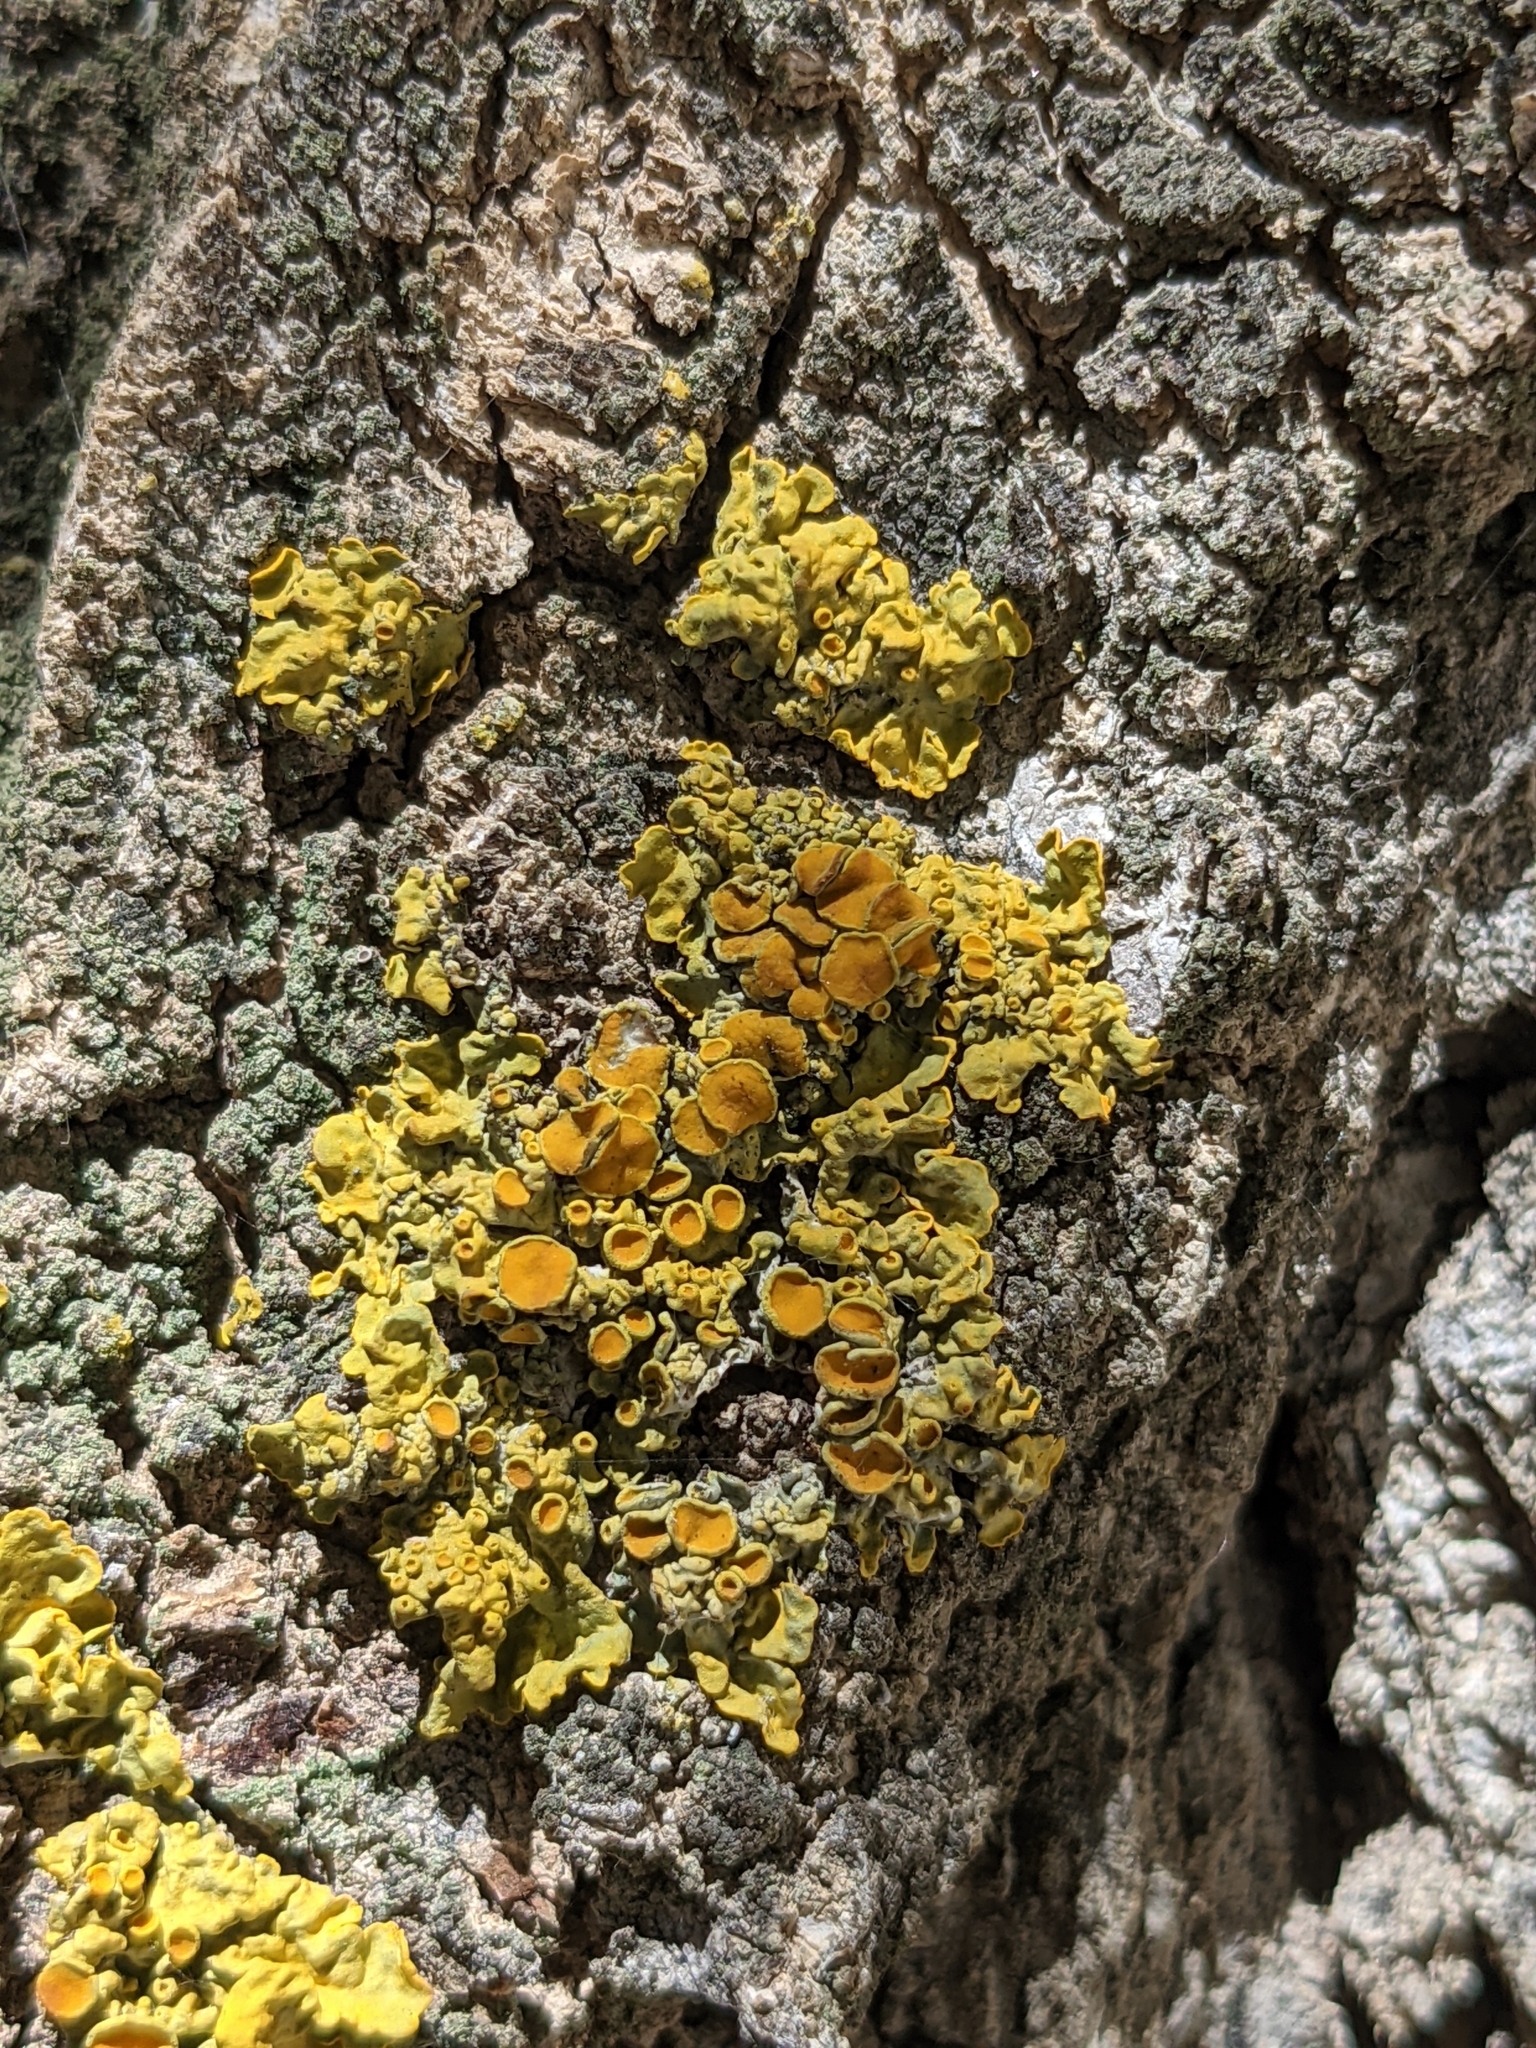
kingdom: Fungi
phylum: Ascomycota
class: Lecanoromycetes
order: Teloschistales
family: Teloschistaceae
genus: Xanthoria
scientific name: Xanthoria parietina
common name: Common orange lichen
